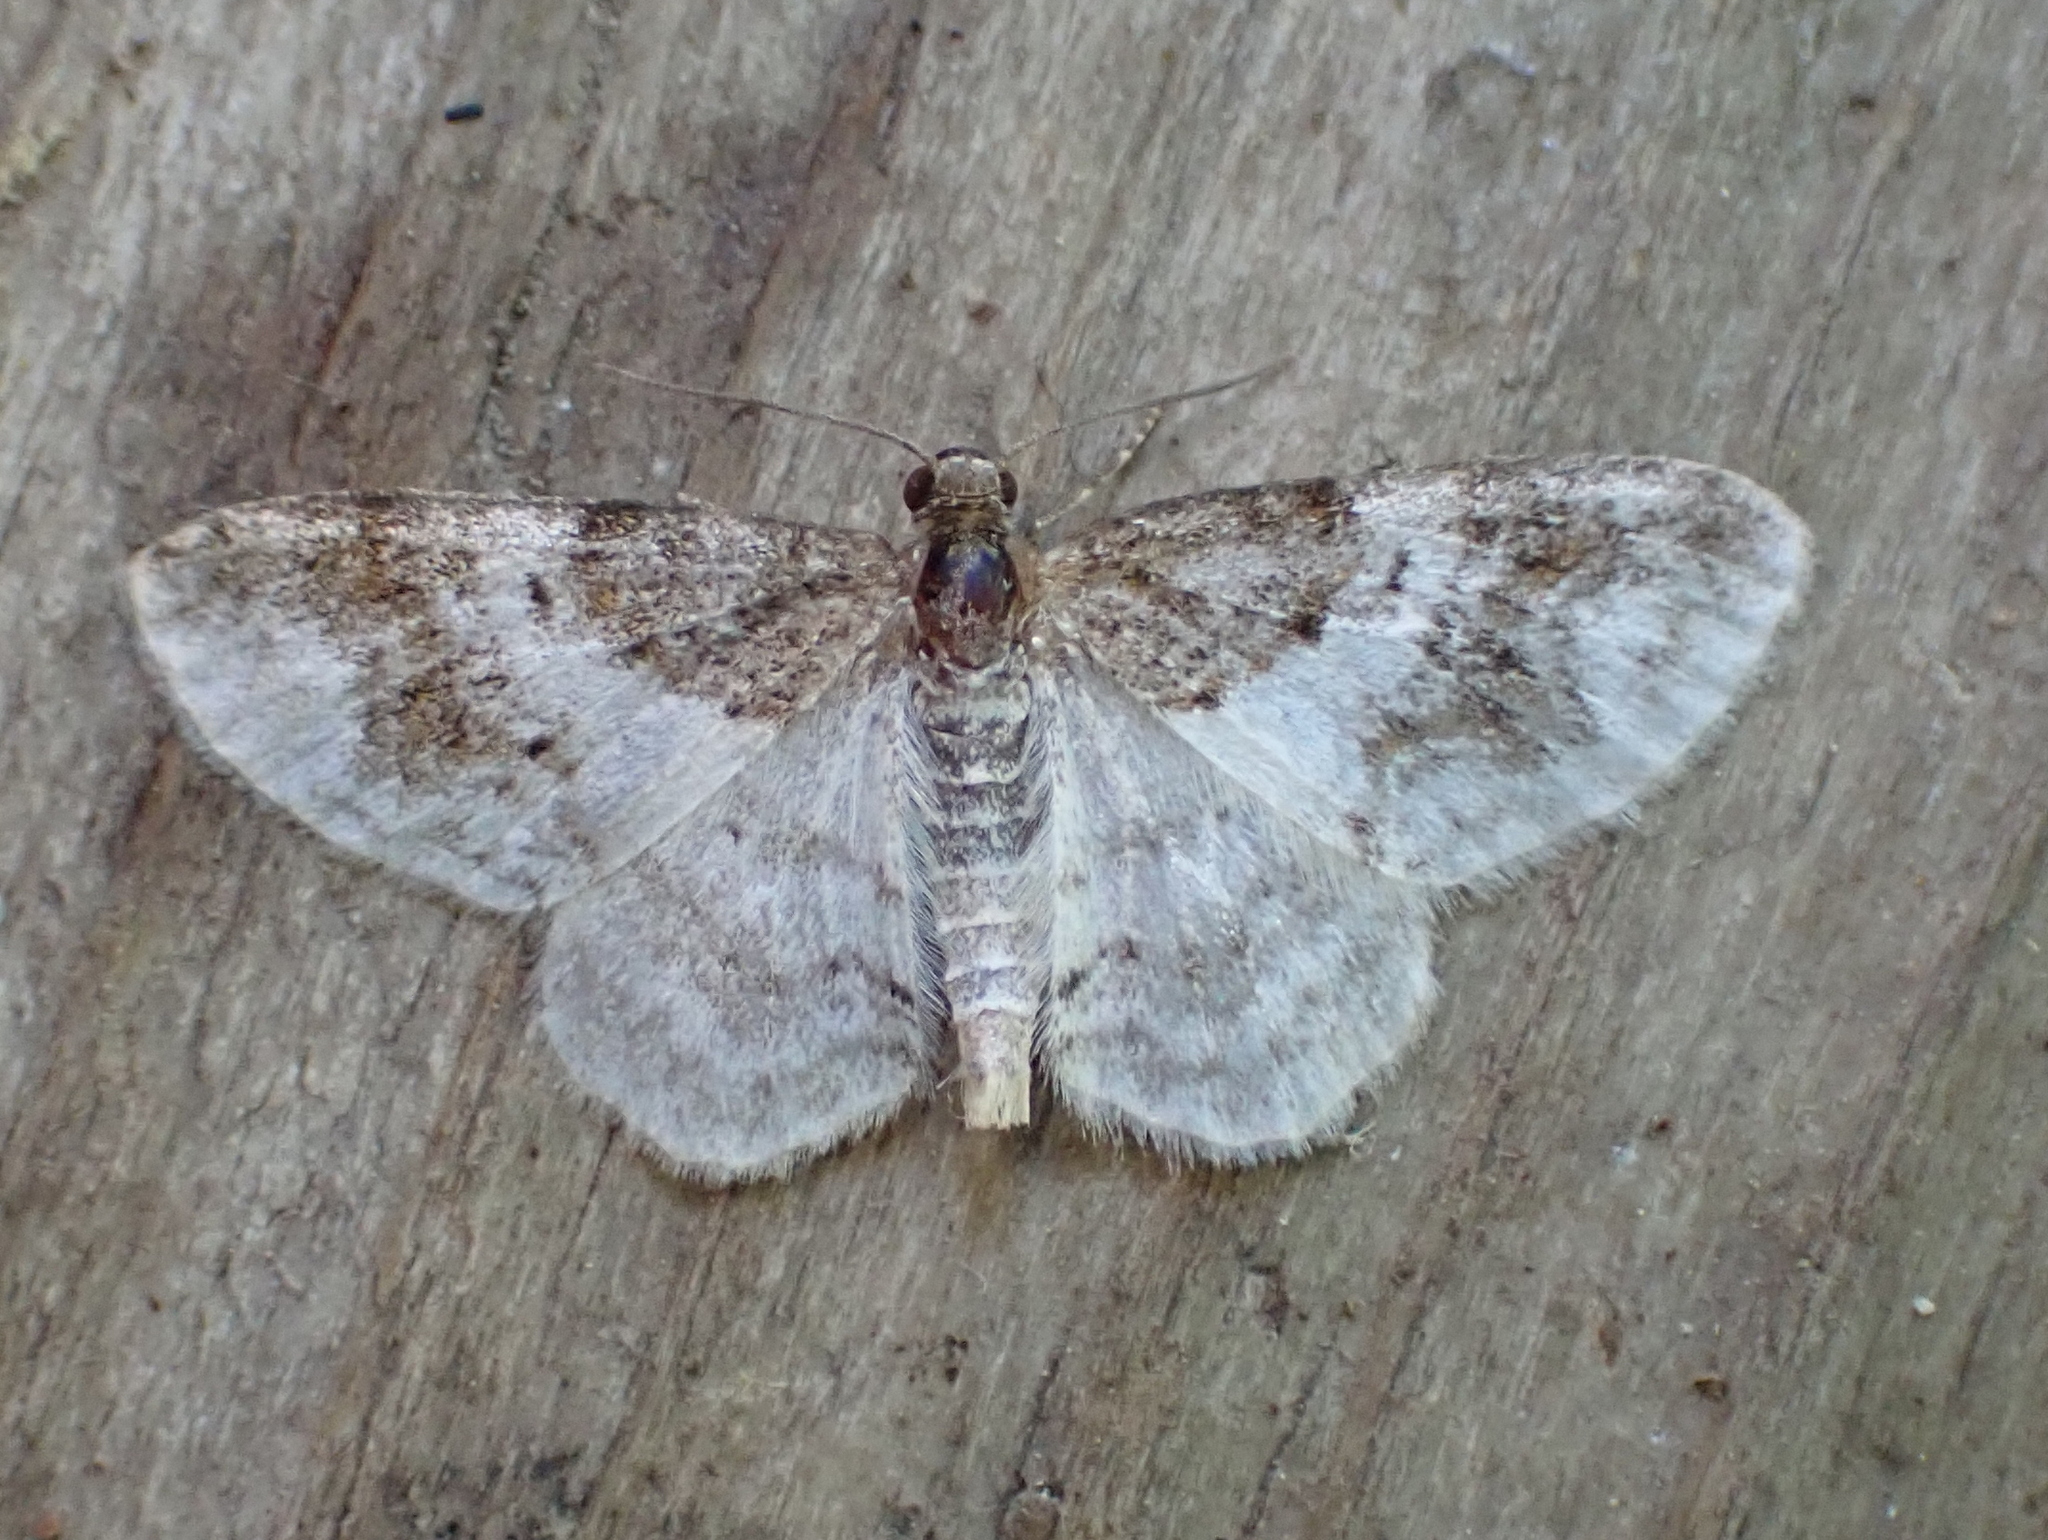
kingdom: Animalia
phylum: Arthropoda
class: Insecta
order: Lepidoptera
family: Geometridae
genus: Hydrelia
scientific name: Hydrelia condensata
